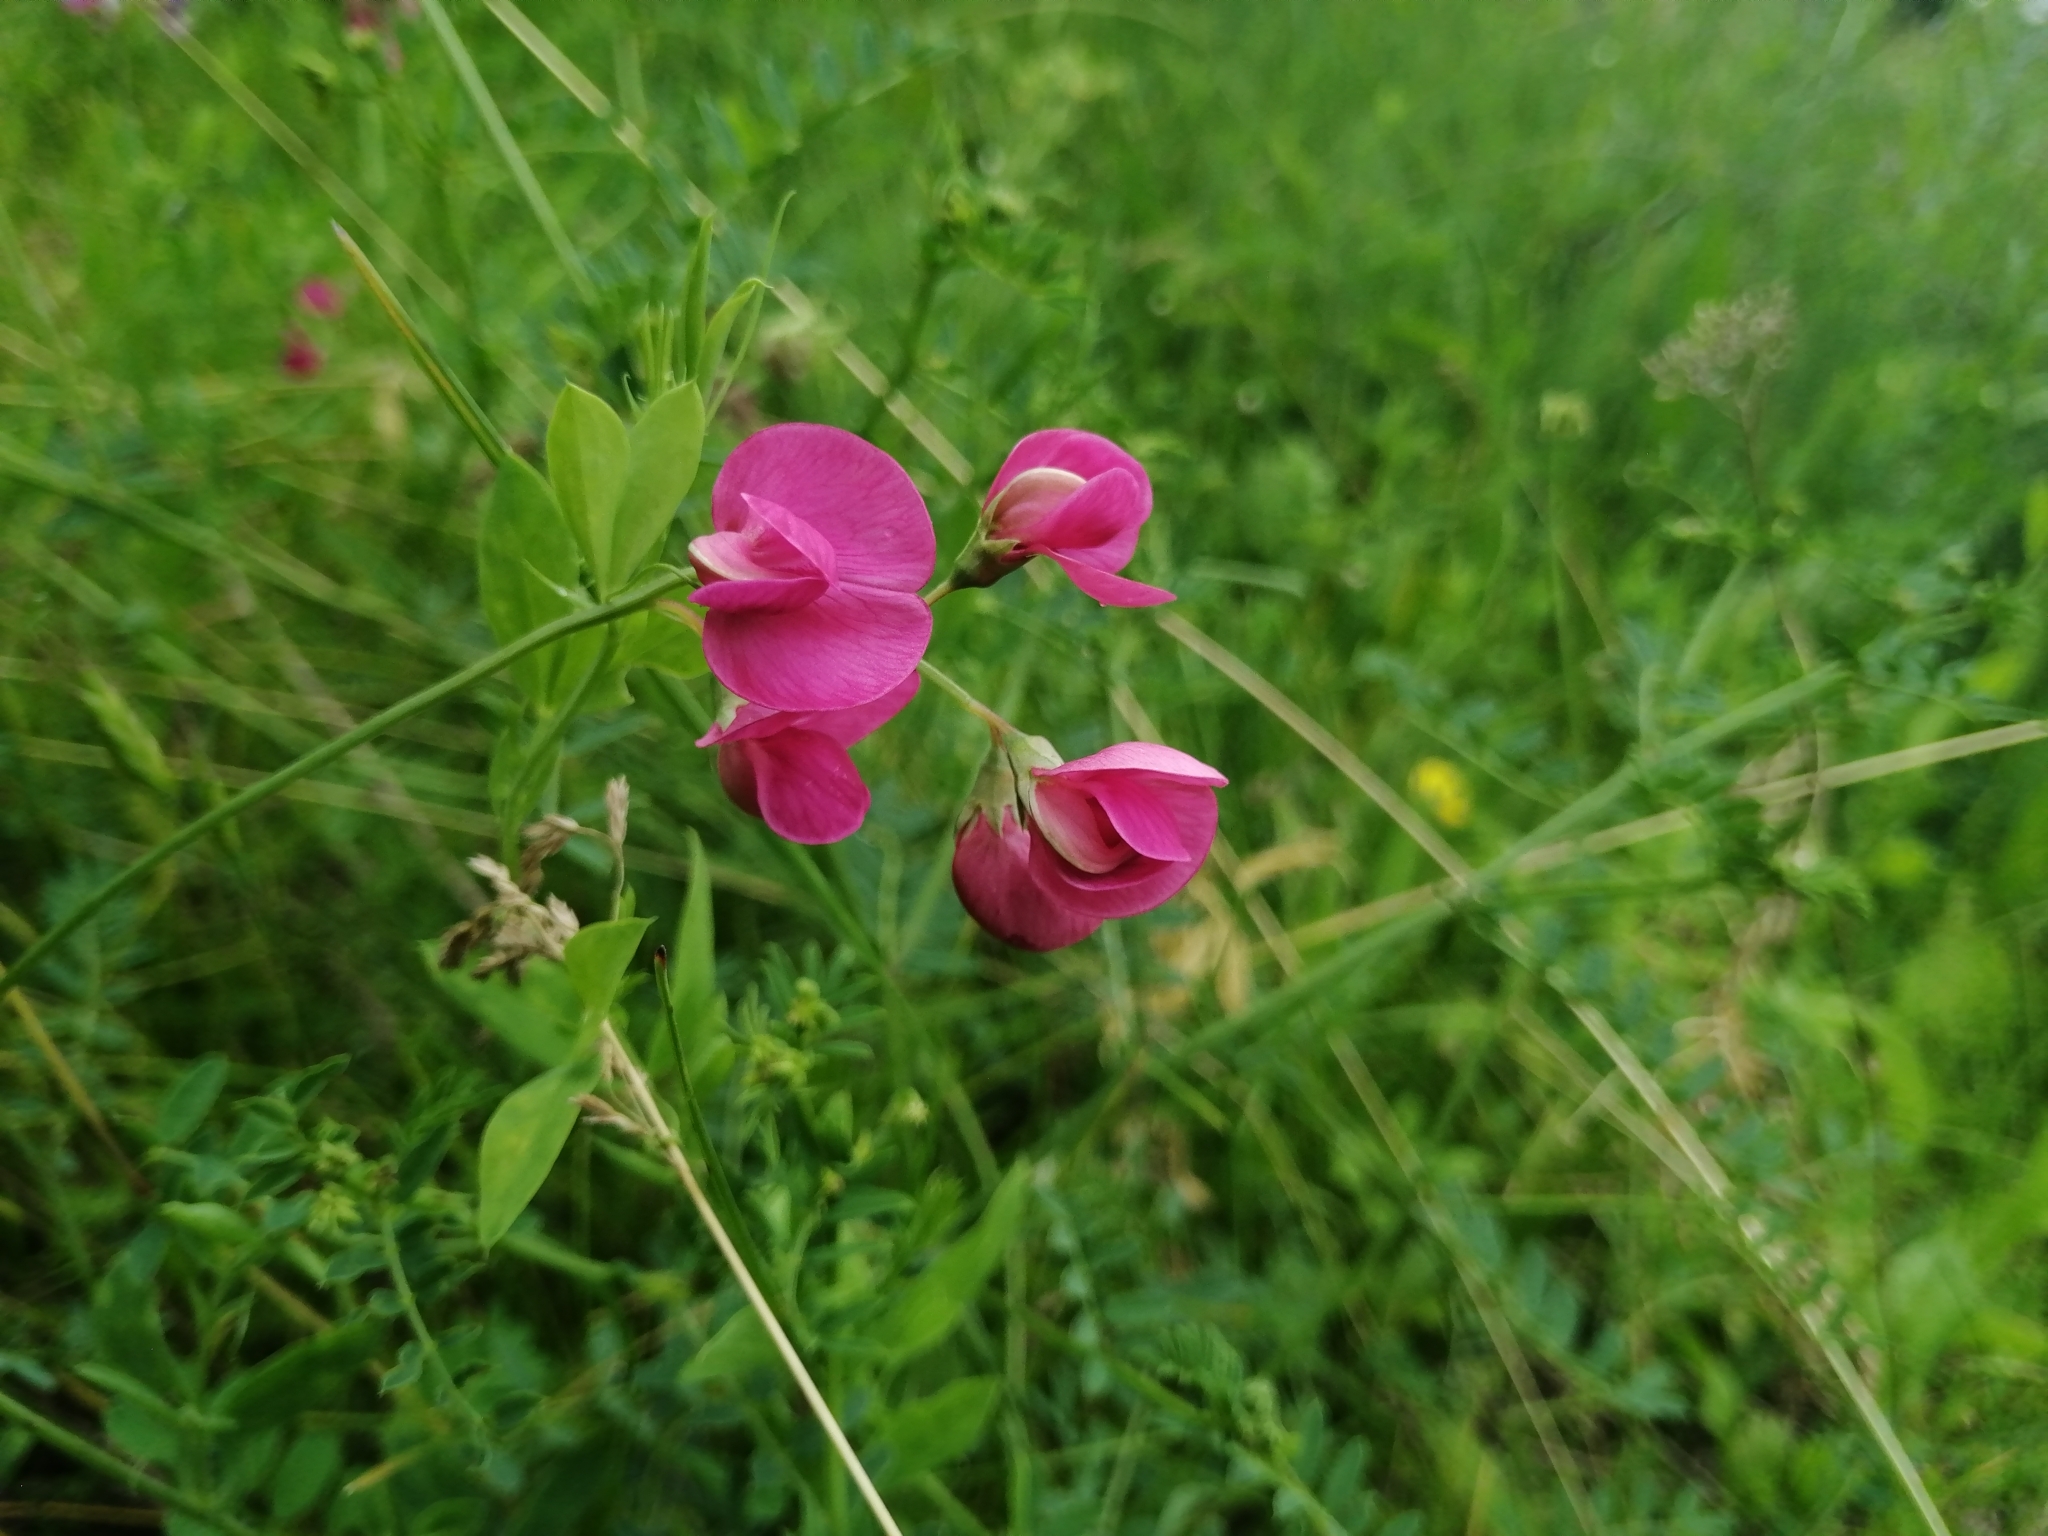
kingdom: Plantae
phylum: Tracheophyta
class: Magnoliopsida
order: Fabales
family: Fabaceae
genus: Lathyrus
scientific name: Lathyrus tuberosus
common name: Tuberous pea
